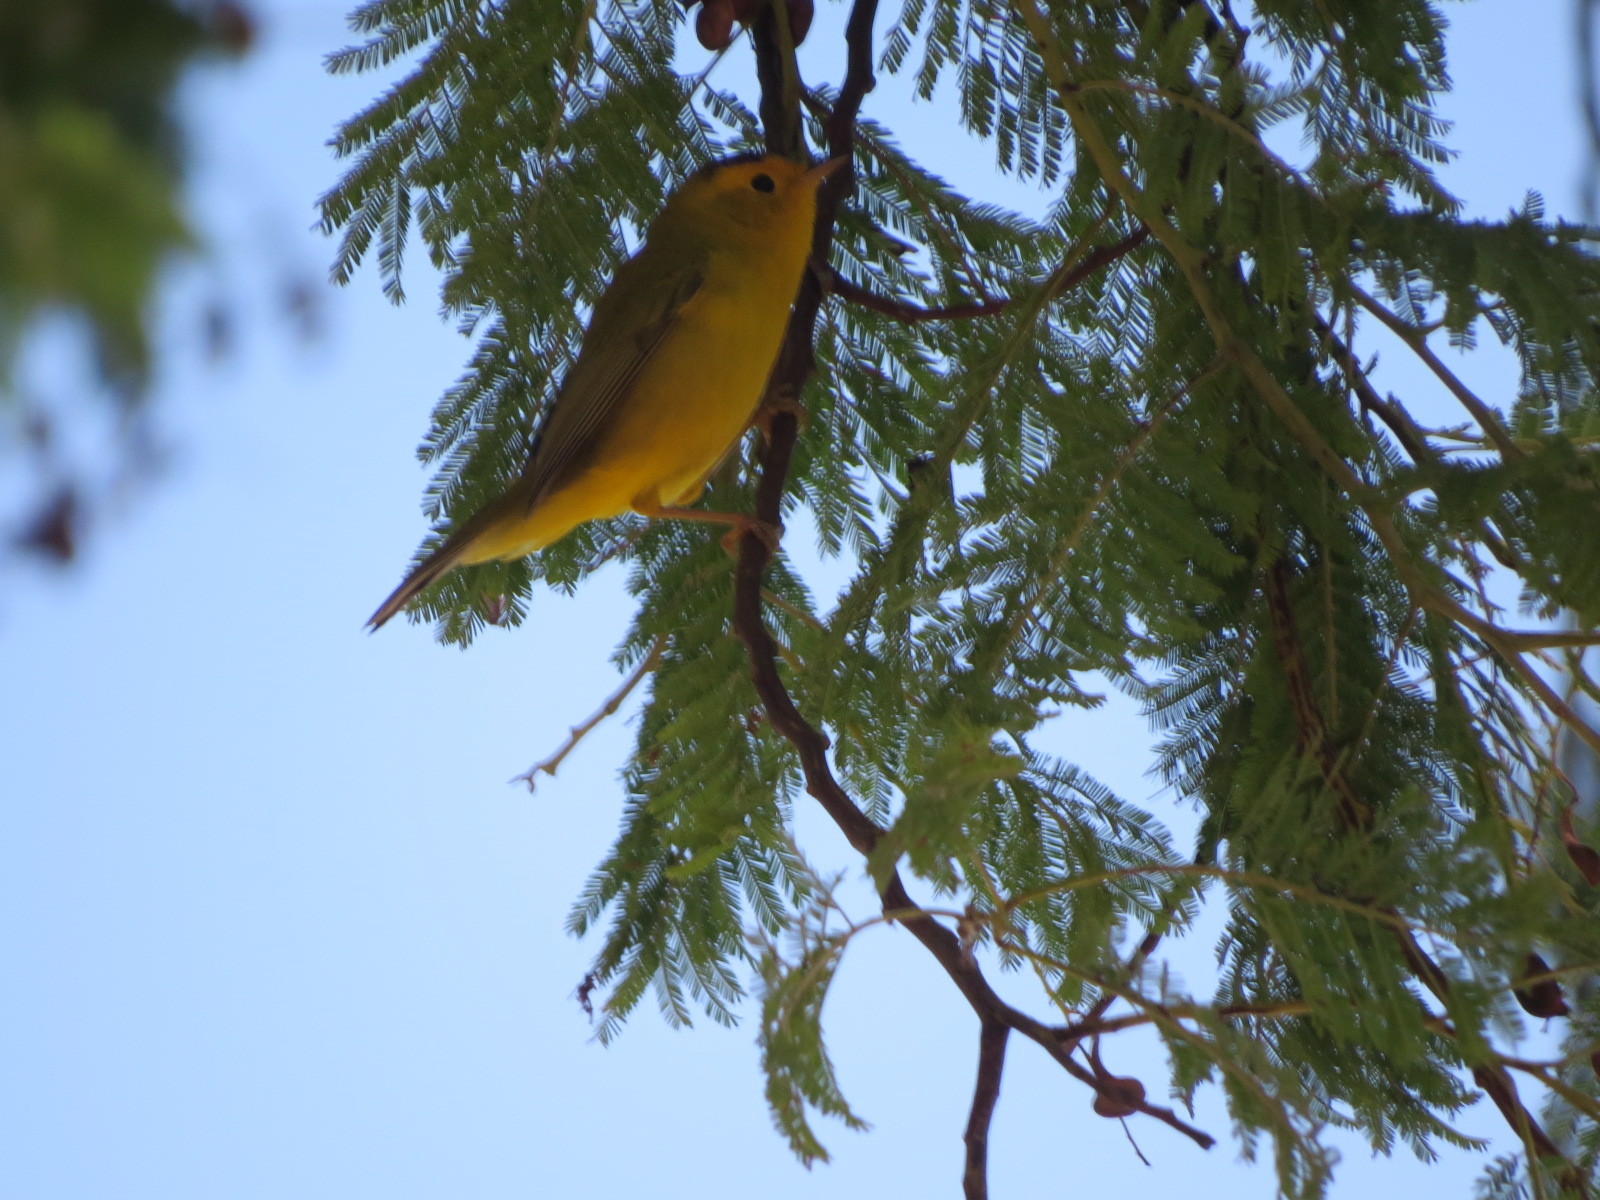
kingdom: Animalia
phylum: Chordata
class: Aves
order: Passeriformes
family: Parulidae
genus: Cardellina
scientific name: Cardellina pusilla
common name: Wilson's warbler
